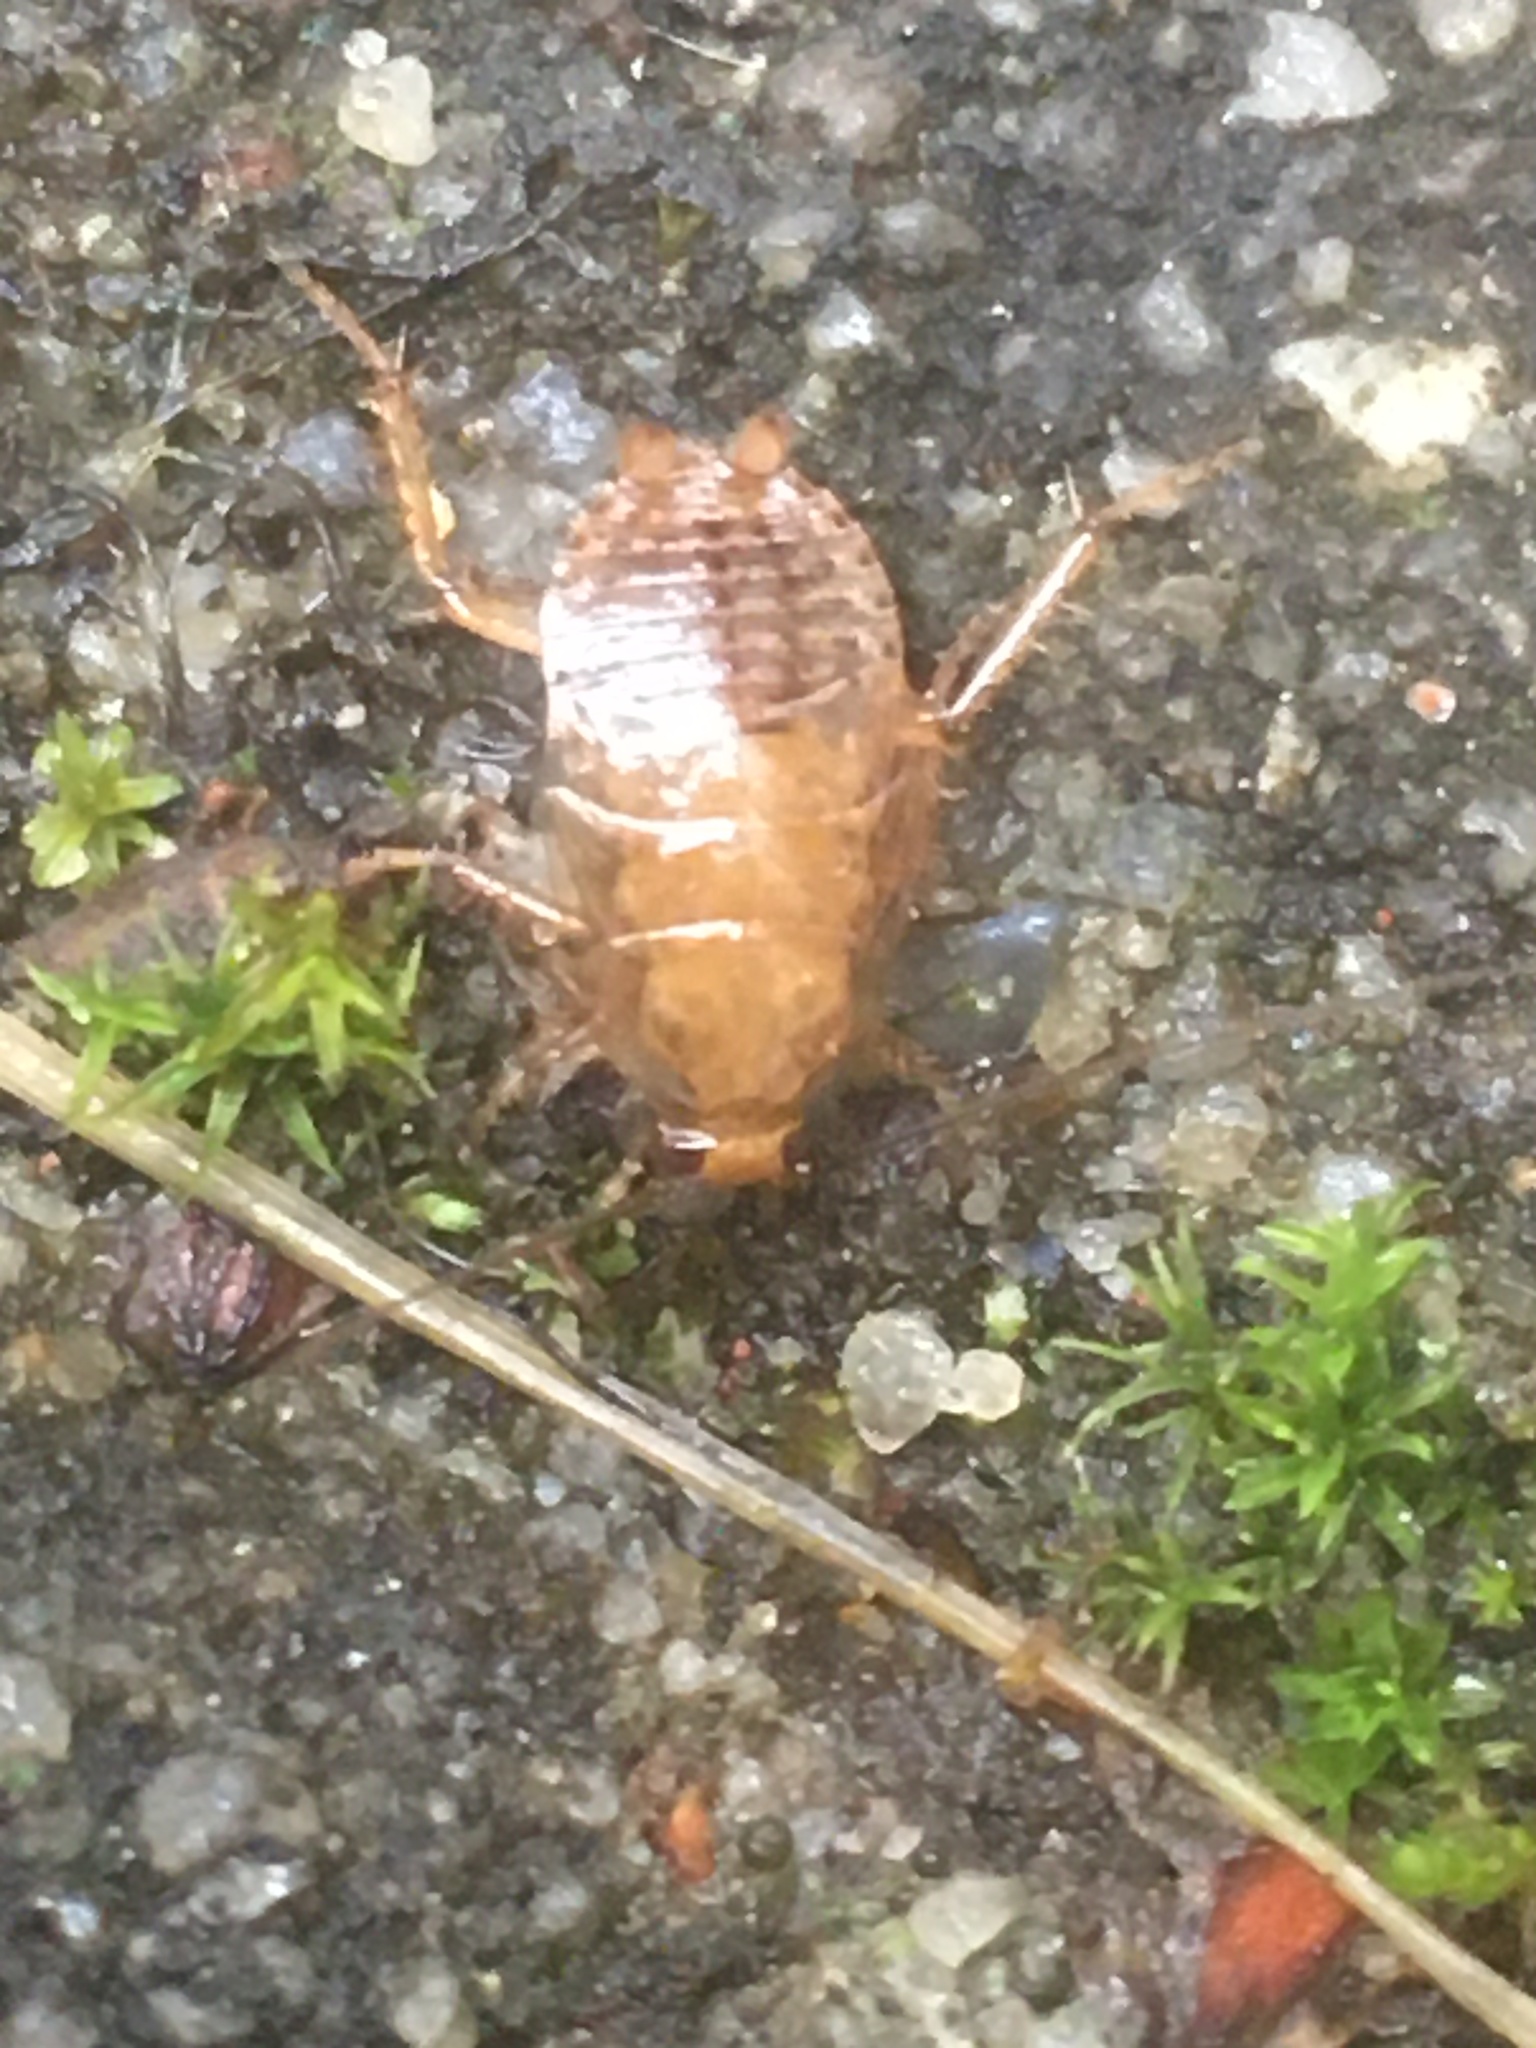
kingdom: Animalia
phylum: Arthropoda
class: Insecta
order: Blattodea
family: Ectobiidae
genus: Ectobius
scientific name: Ectobius lapponicus
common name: Dusky cockroach
